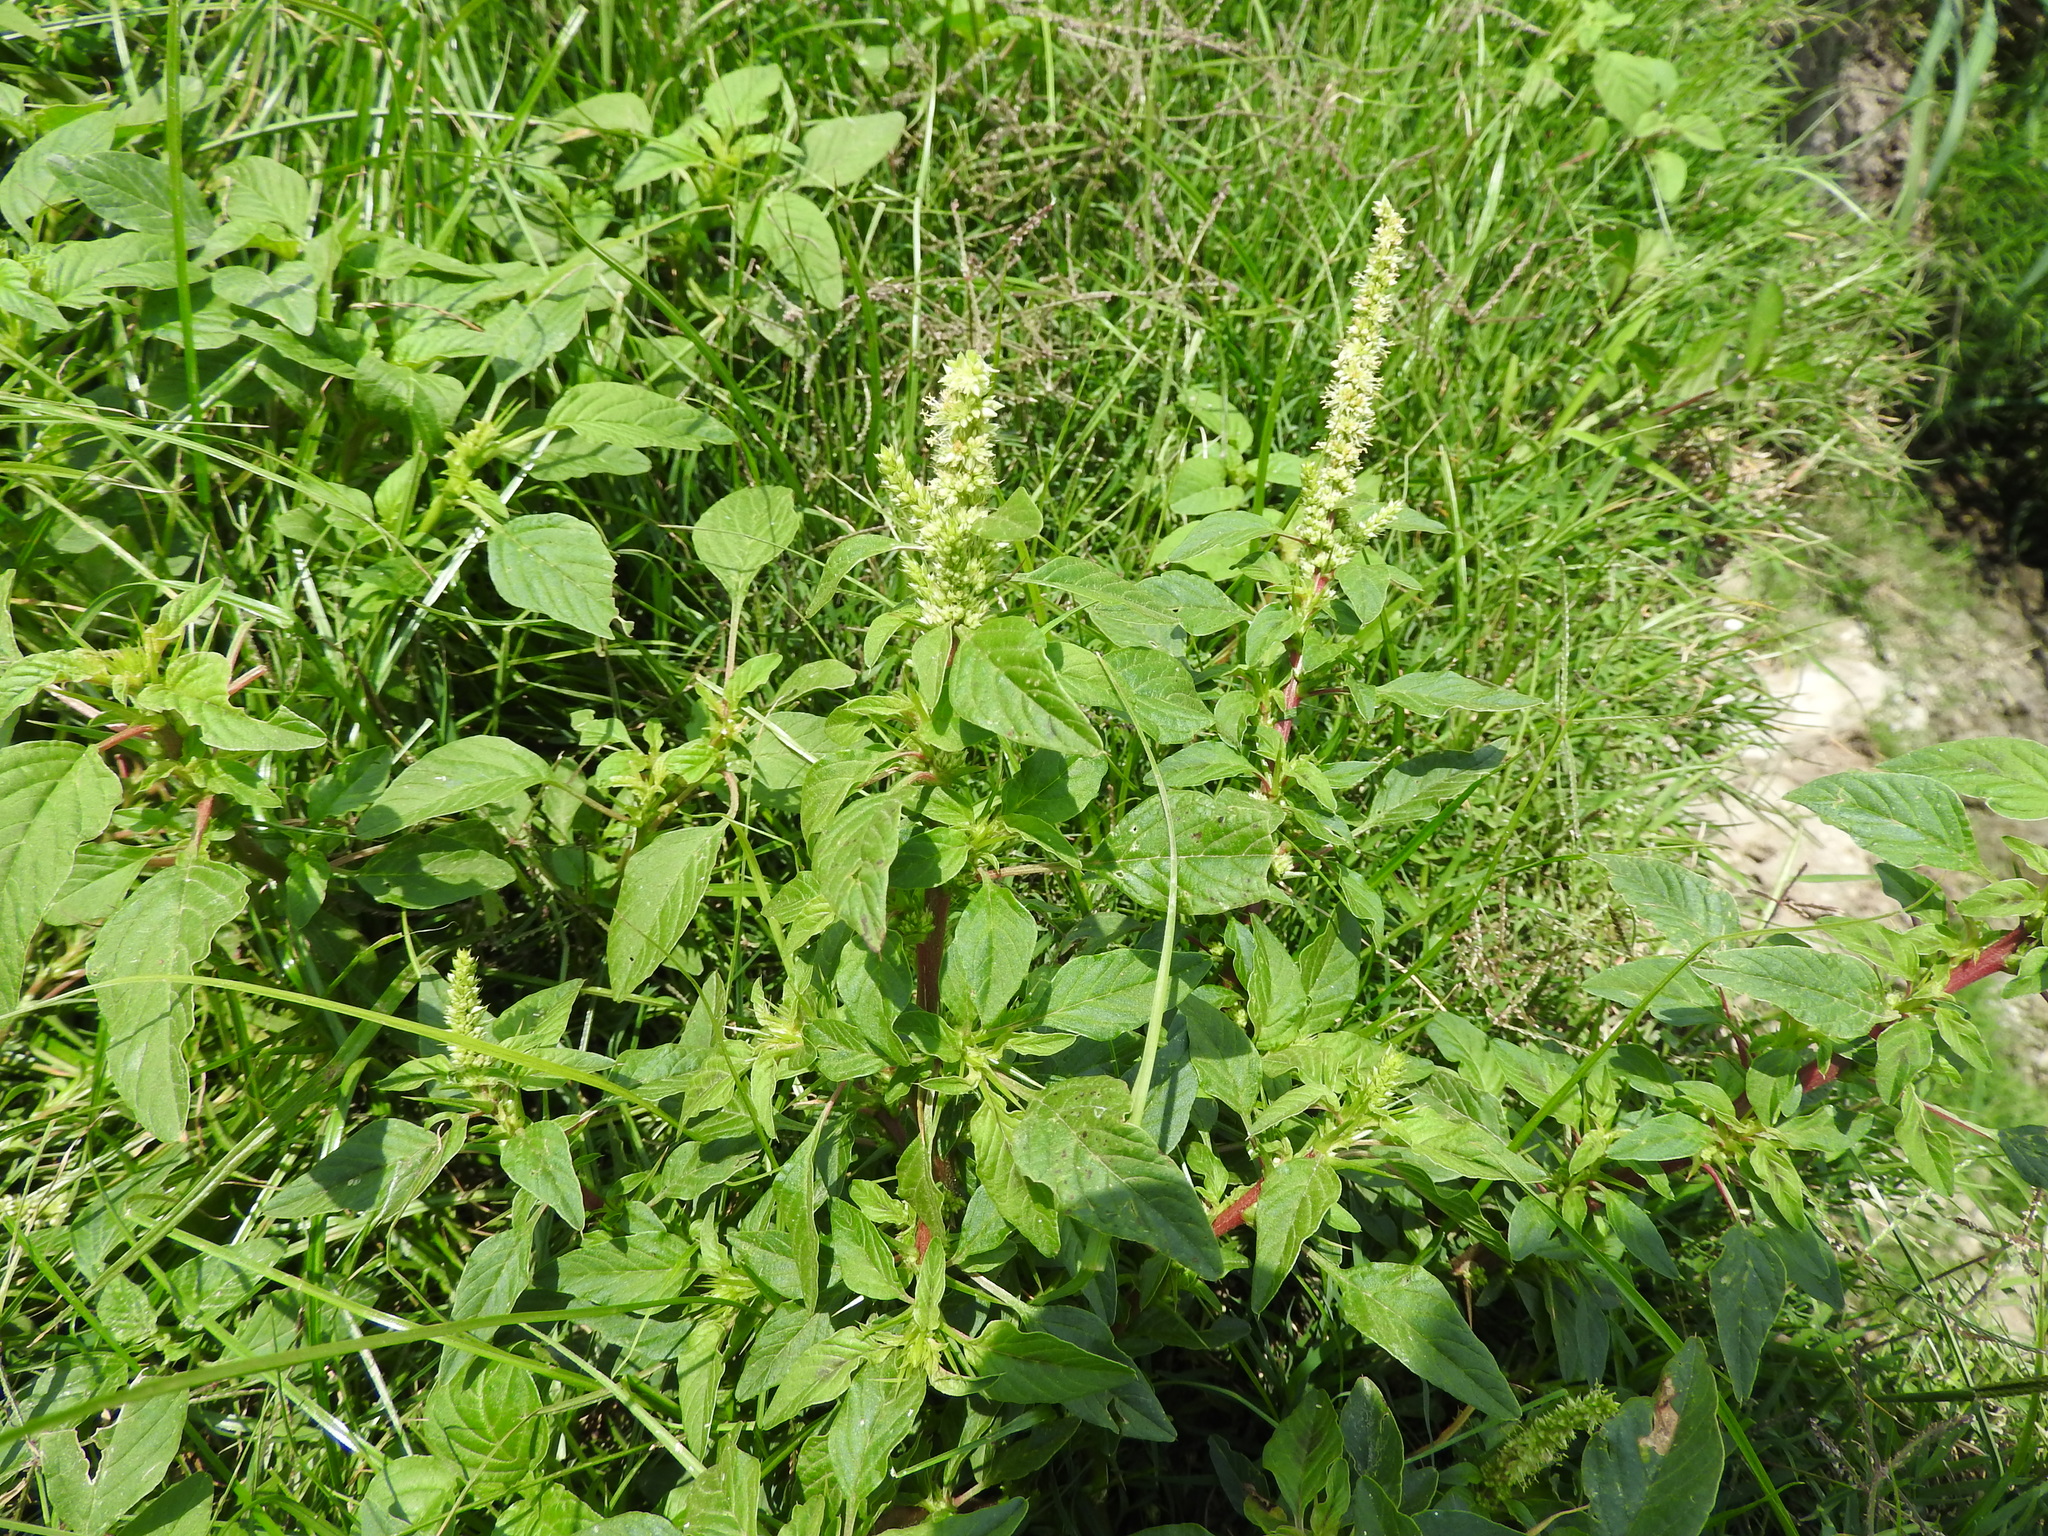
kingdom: Plantae
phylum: Tracheophyta
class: Magnoliopsida
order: Caryophyllales
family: Amaranthaceae
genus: Amaranthus
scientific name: Amaranthus hybridus
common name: Green amaranth
